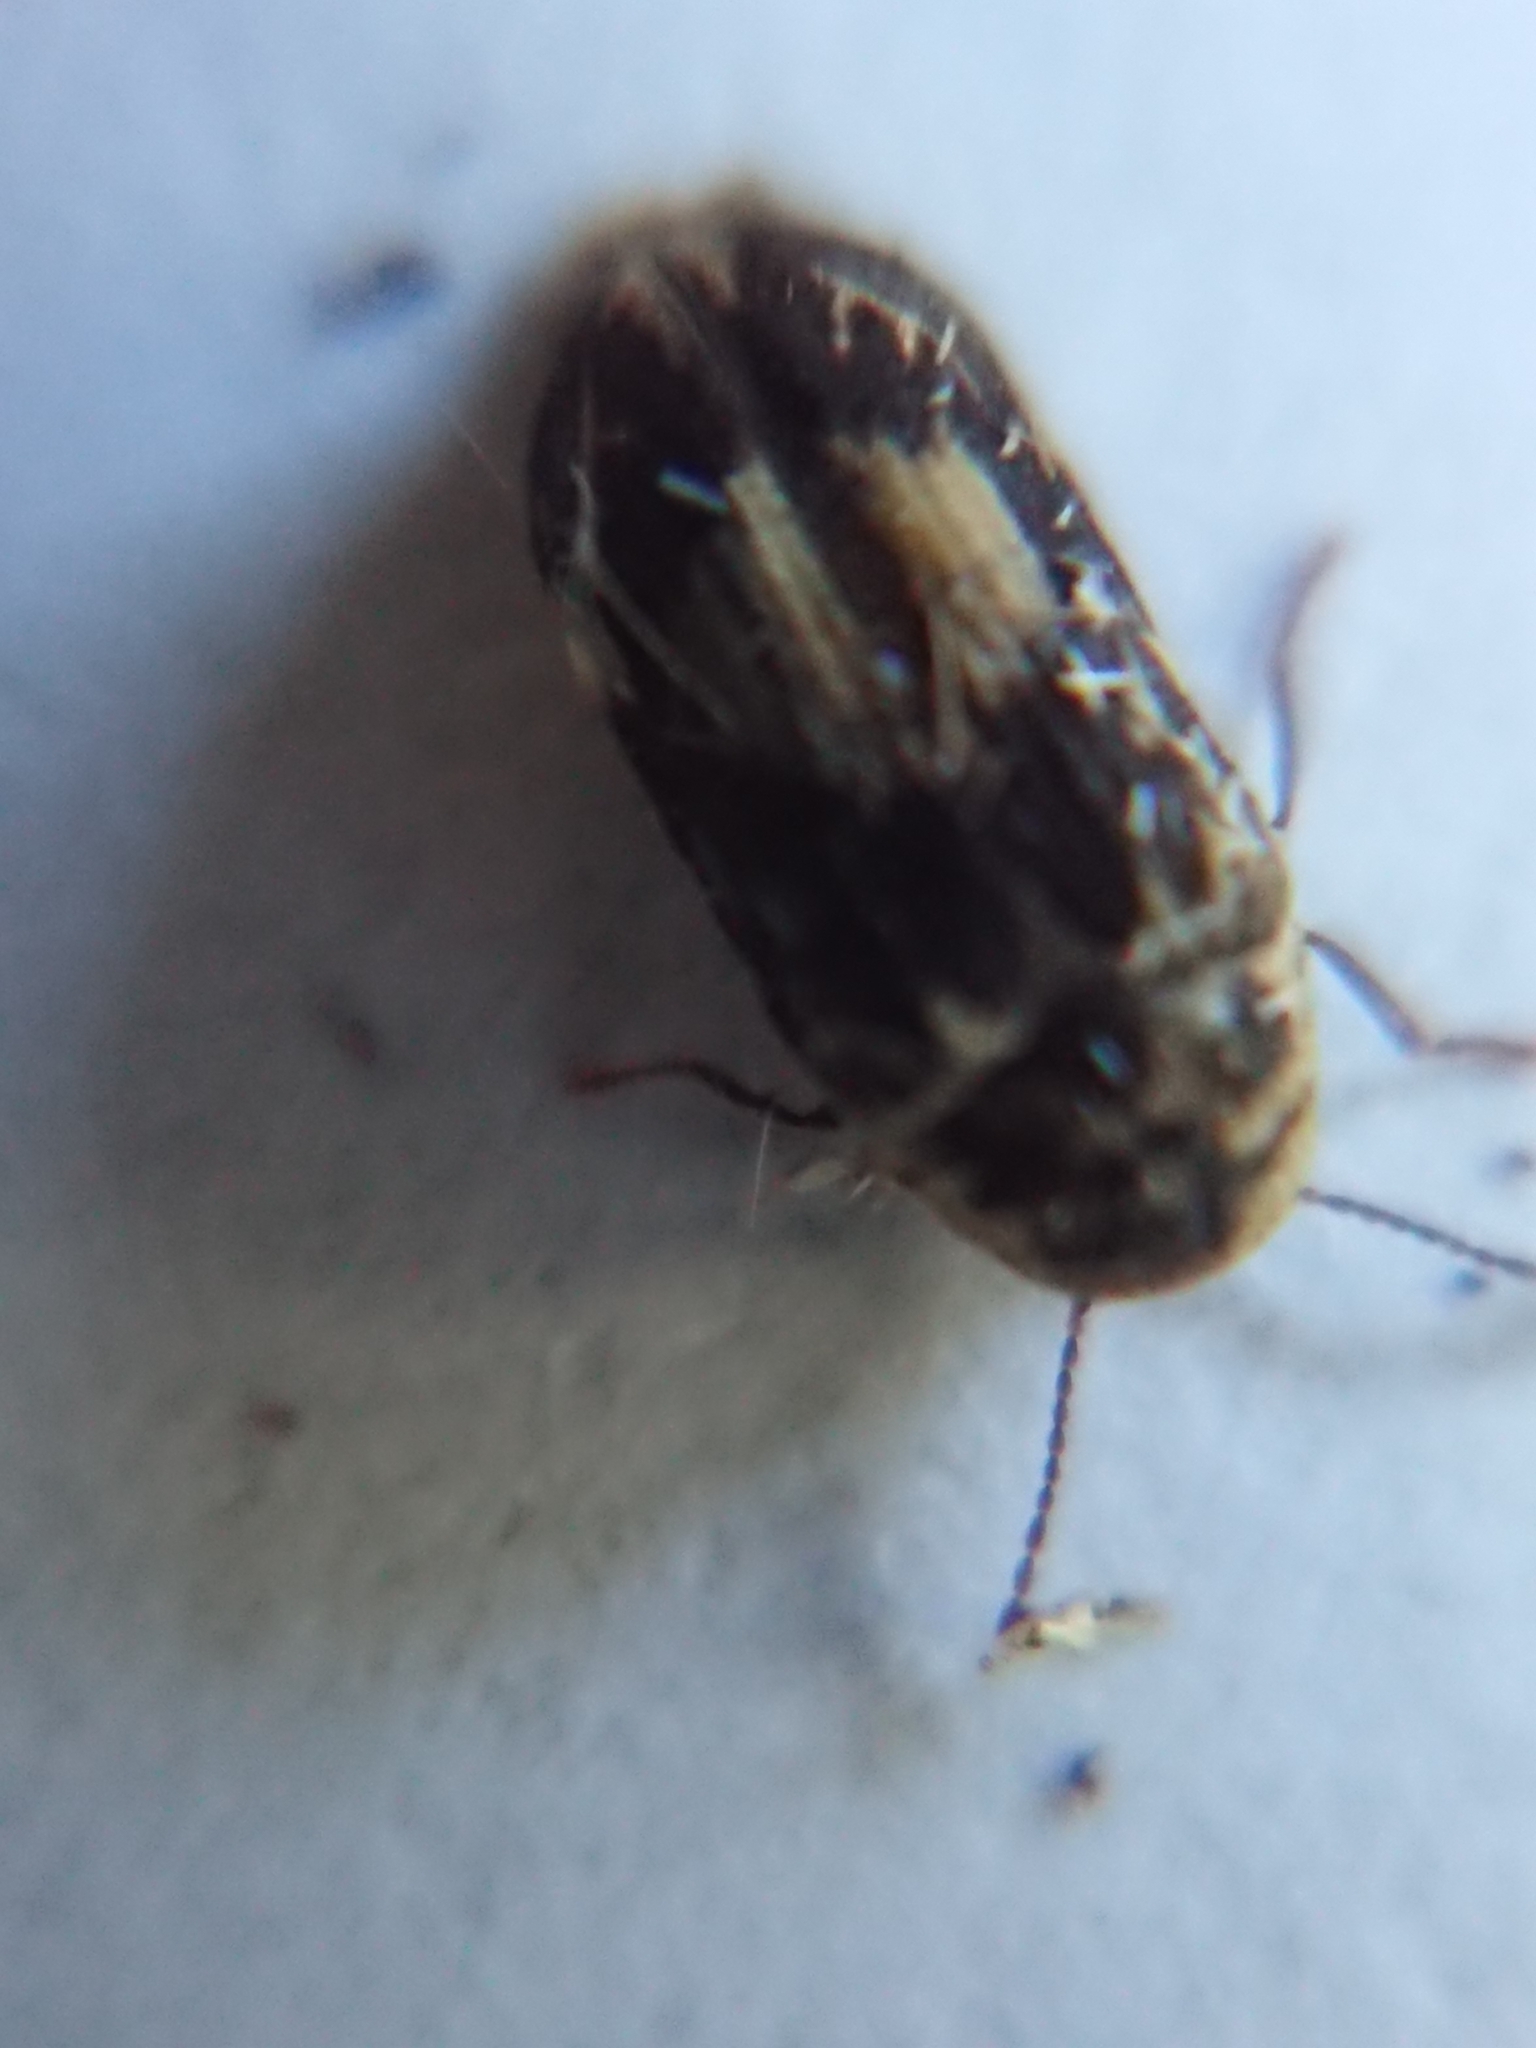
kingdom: Animalia
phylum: Arthropoda
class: Insecta
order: Coleoptera
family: Ptinidae
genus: Leanobium
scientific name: Leanobium
